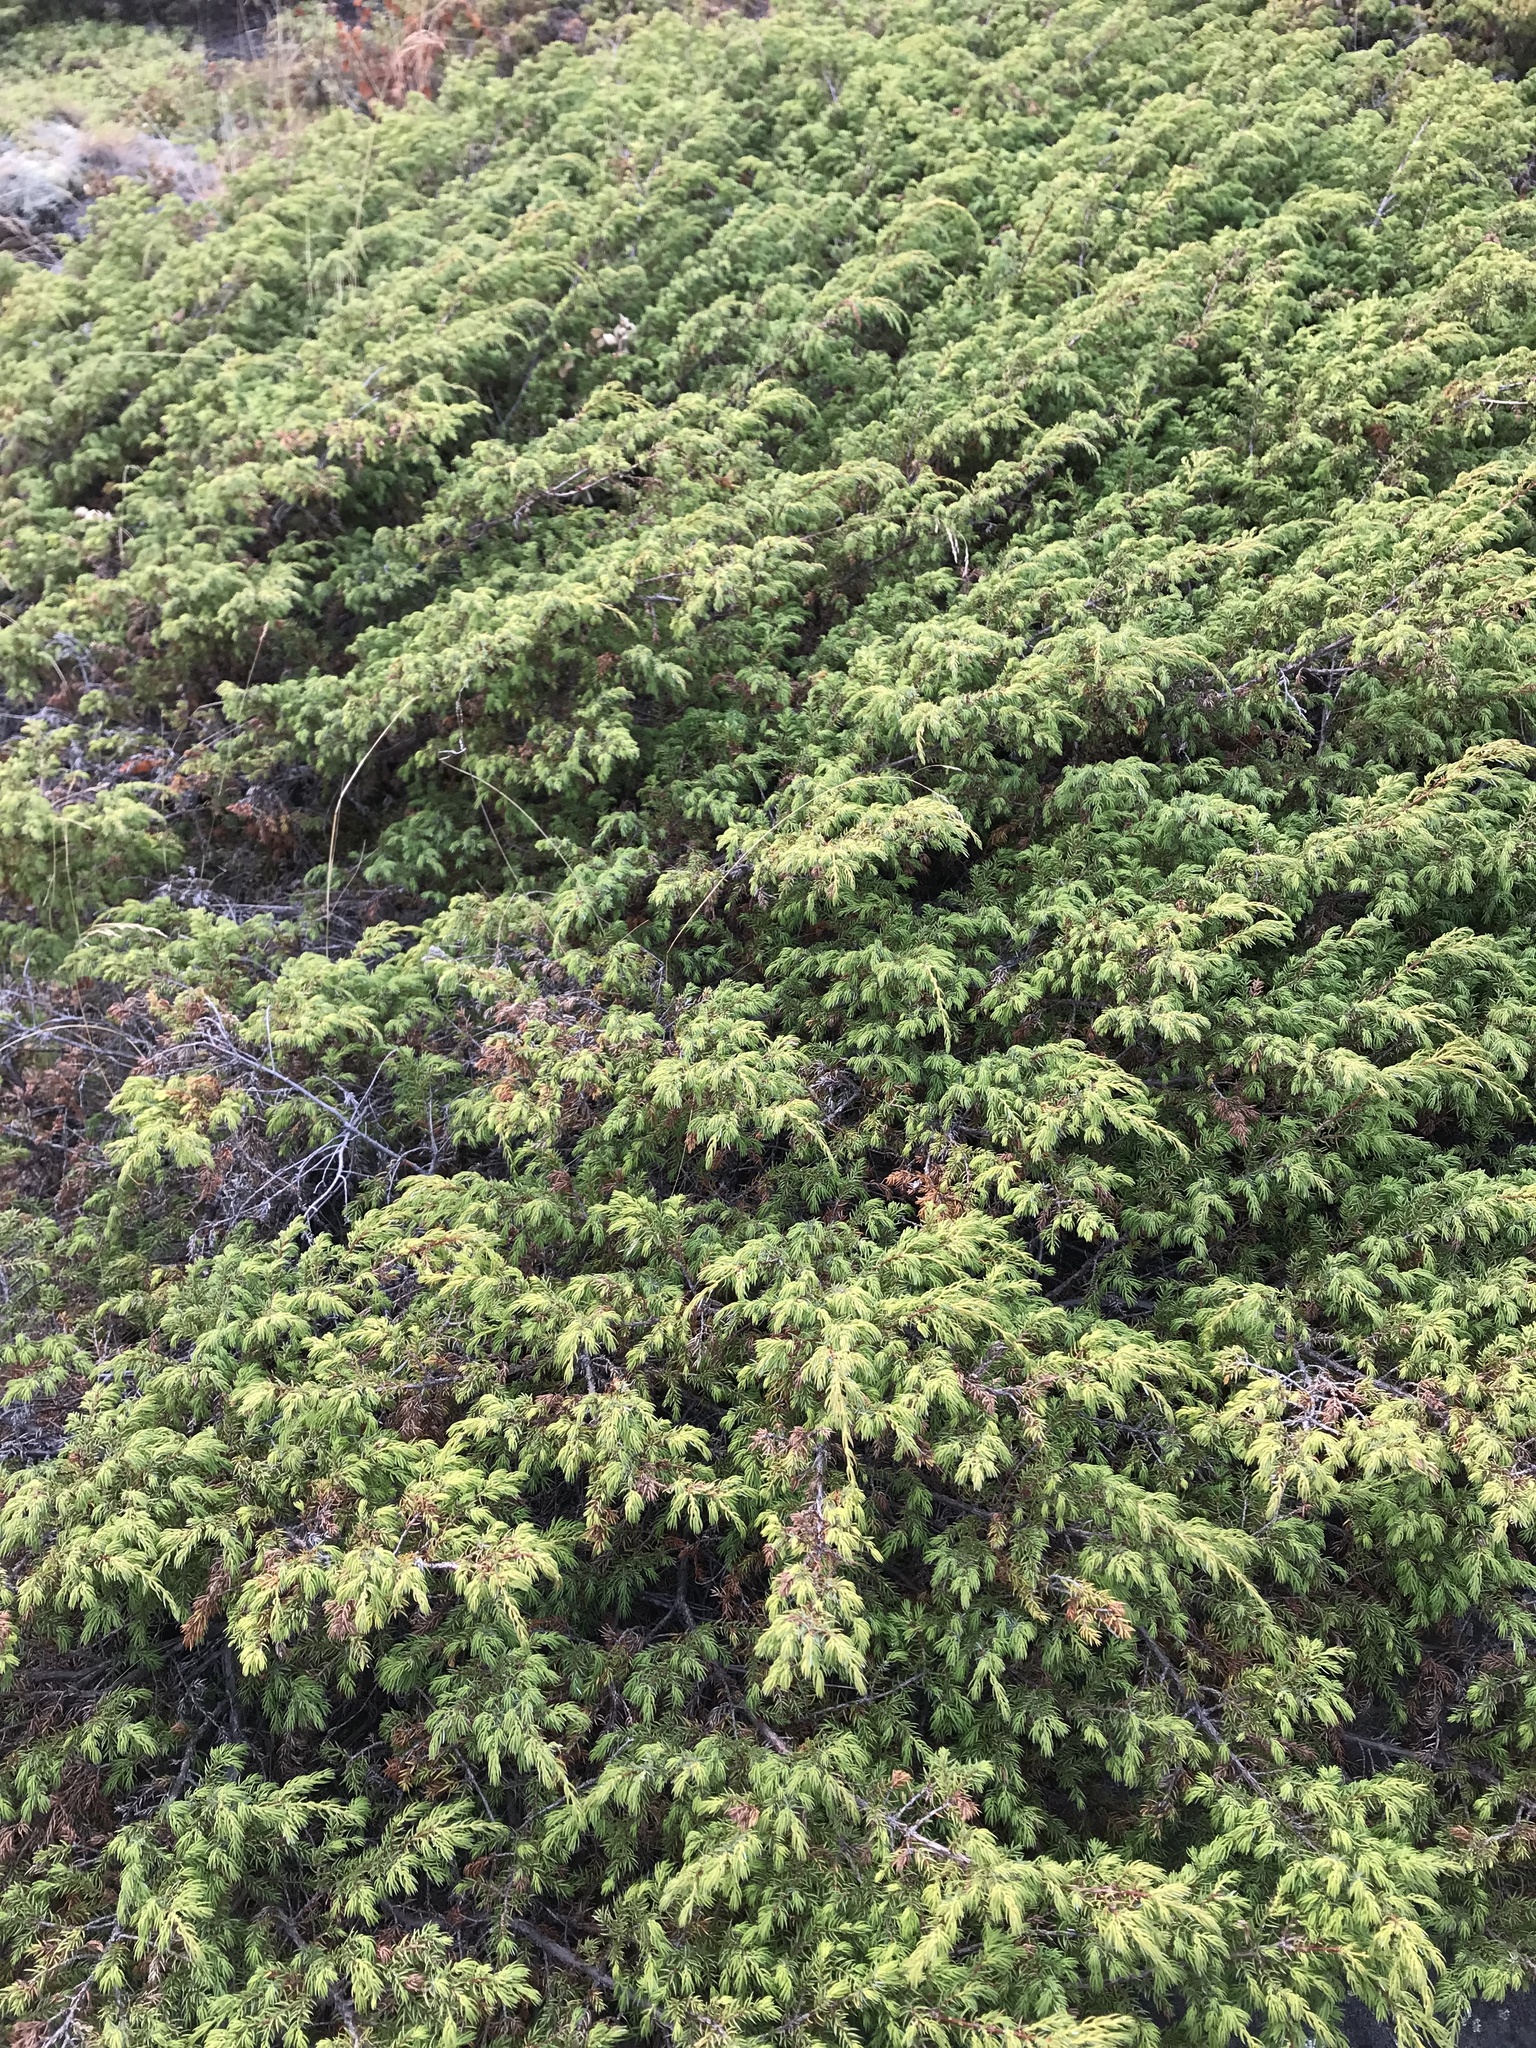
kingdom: Plantae
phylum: Tracheophyta
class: Pinopsida
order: Pinales
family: Cupressaceae
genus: Juniperus
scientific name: Juniperus communis
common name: Common juniper
